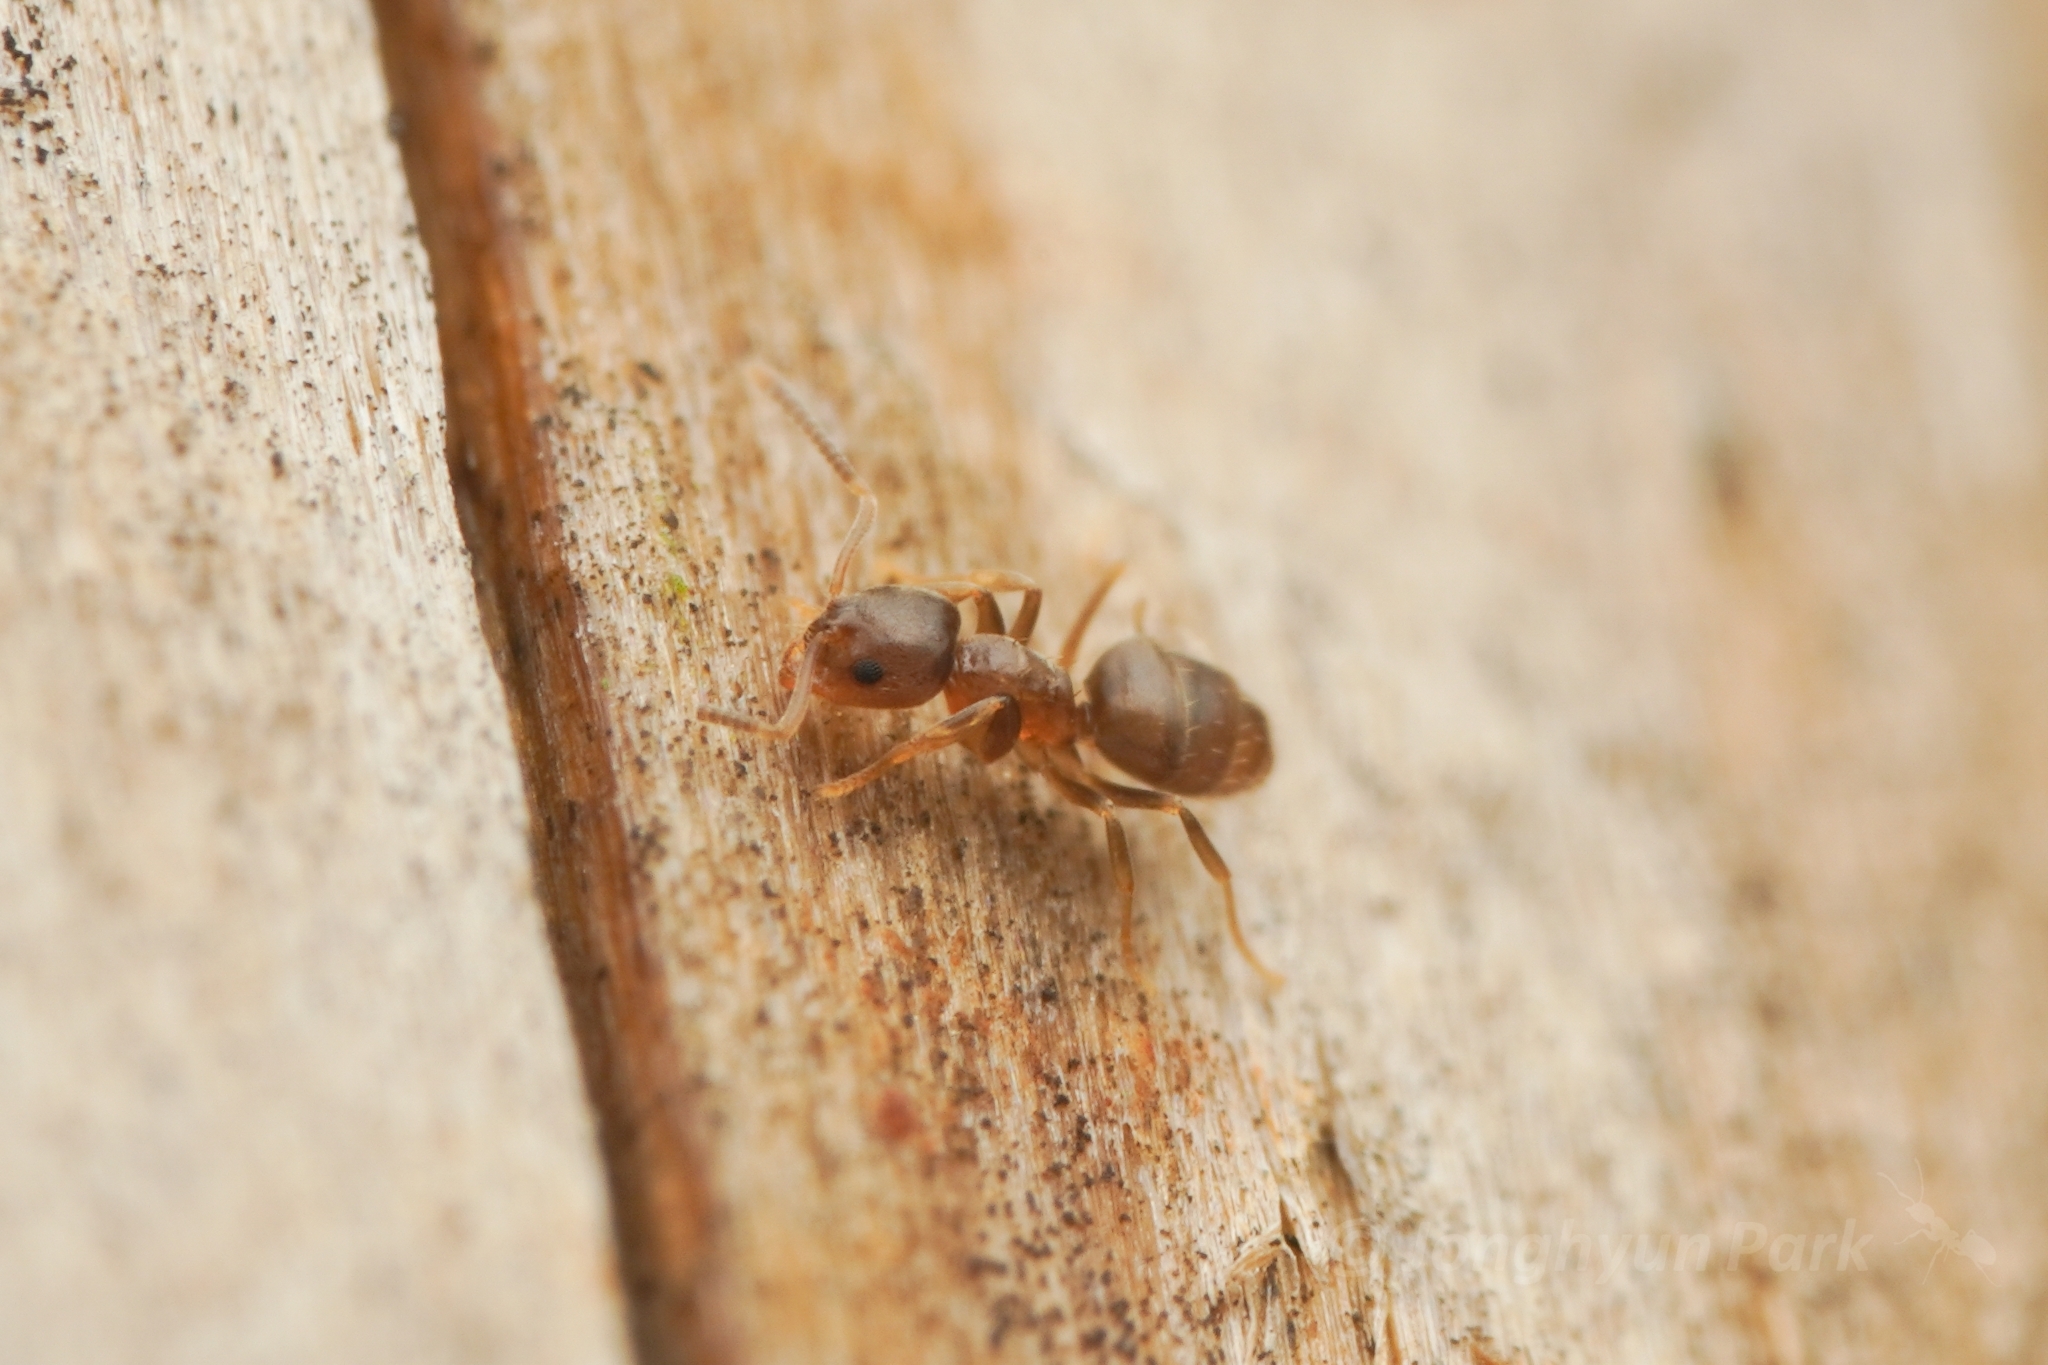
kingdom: Animalia
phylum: Arthropoda
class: Insecta
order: Hymenoptera
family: Formicidae
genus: Paraparatrechina
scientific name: Paraparatrechina
